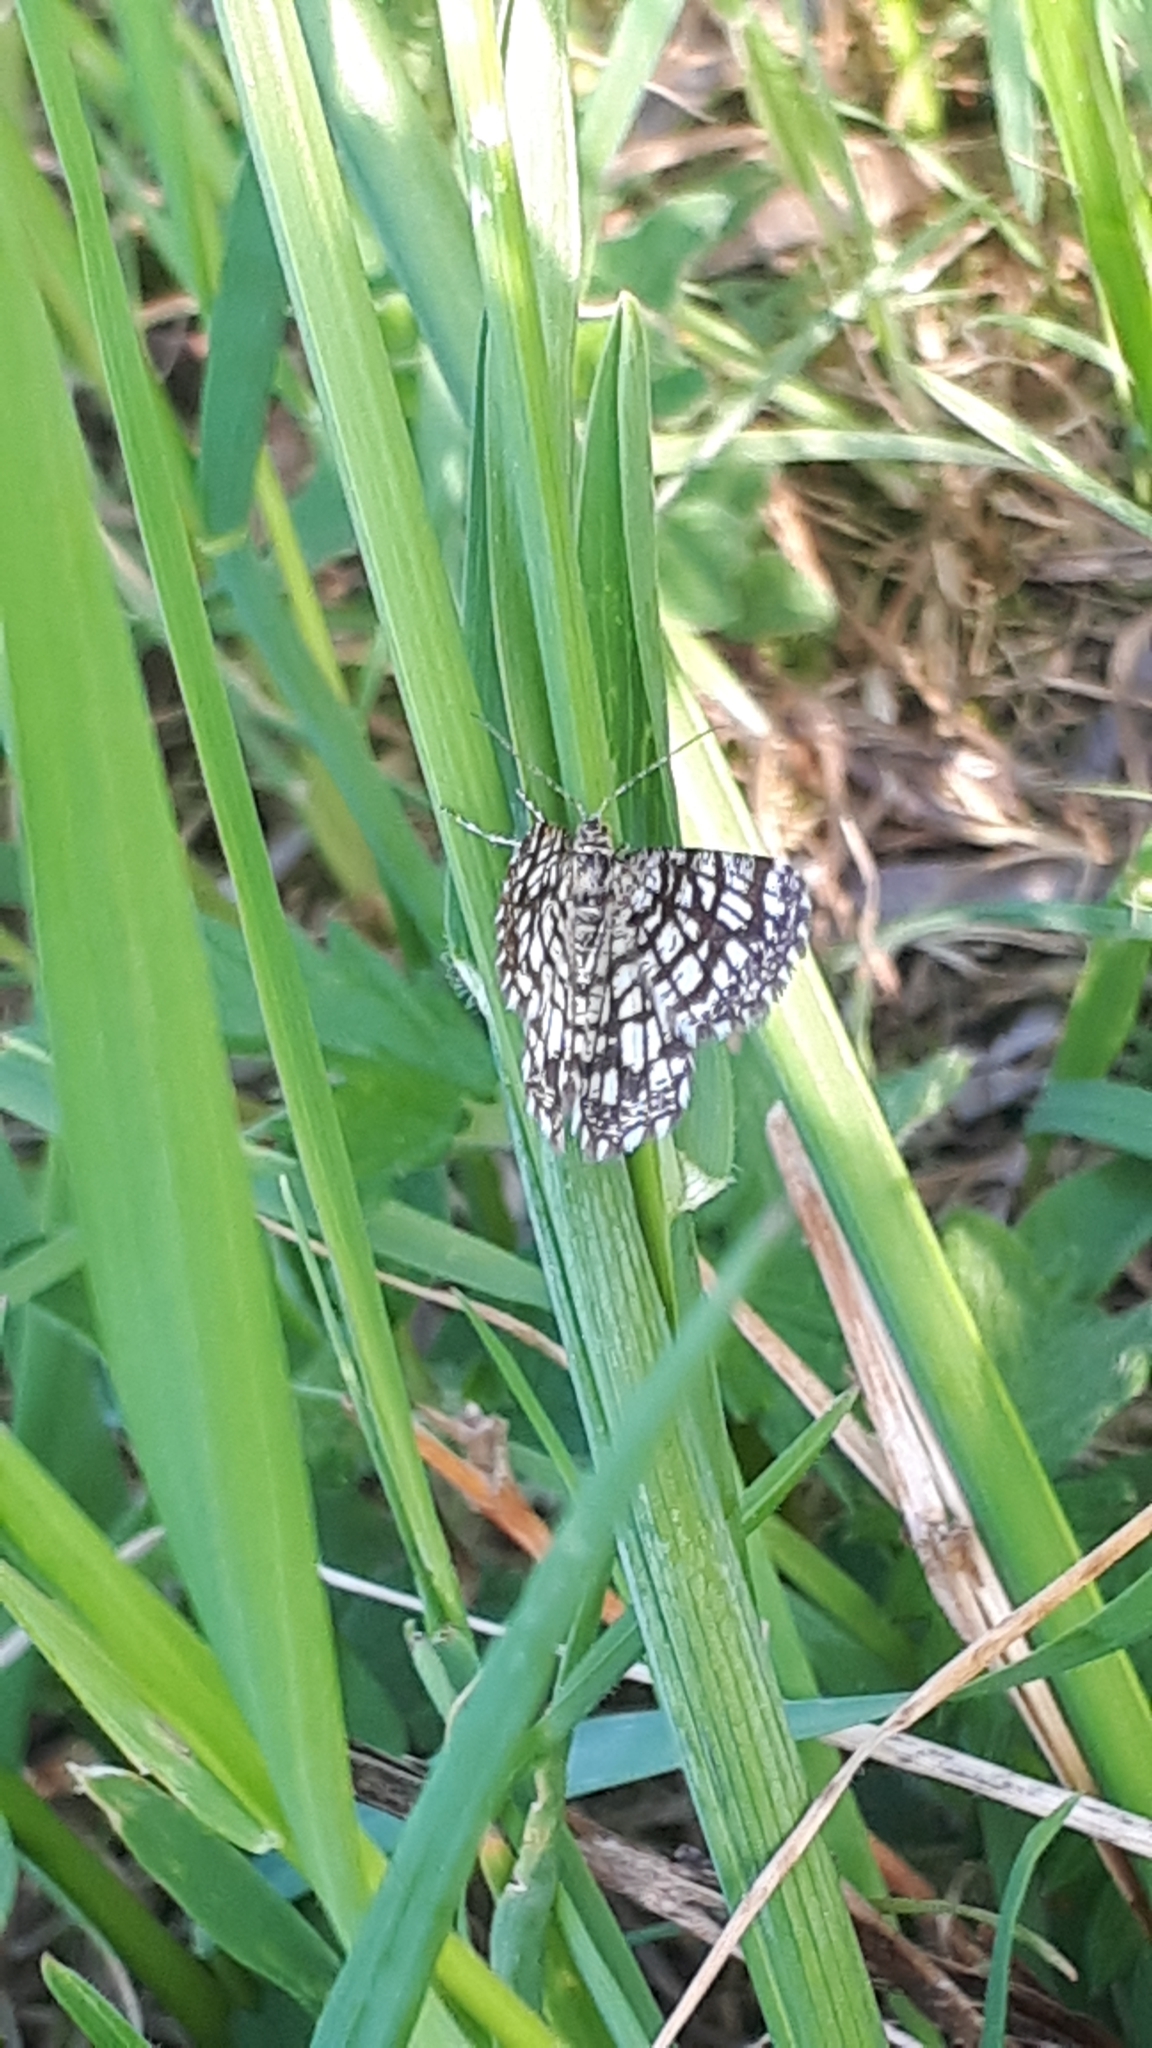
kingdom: Animalia
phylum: Arthropoda
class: Insecta
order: Lepidoptera
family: Geometridae
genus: Chiasmia
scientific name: Chiasmia clathrata
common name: Latticed heath
